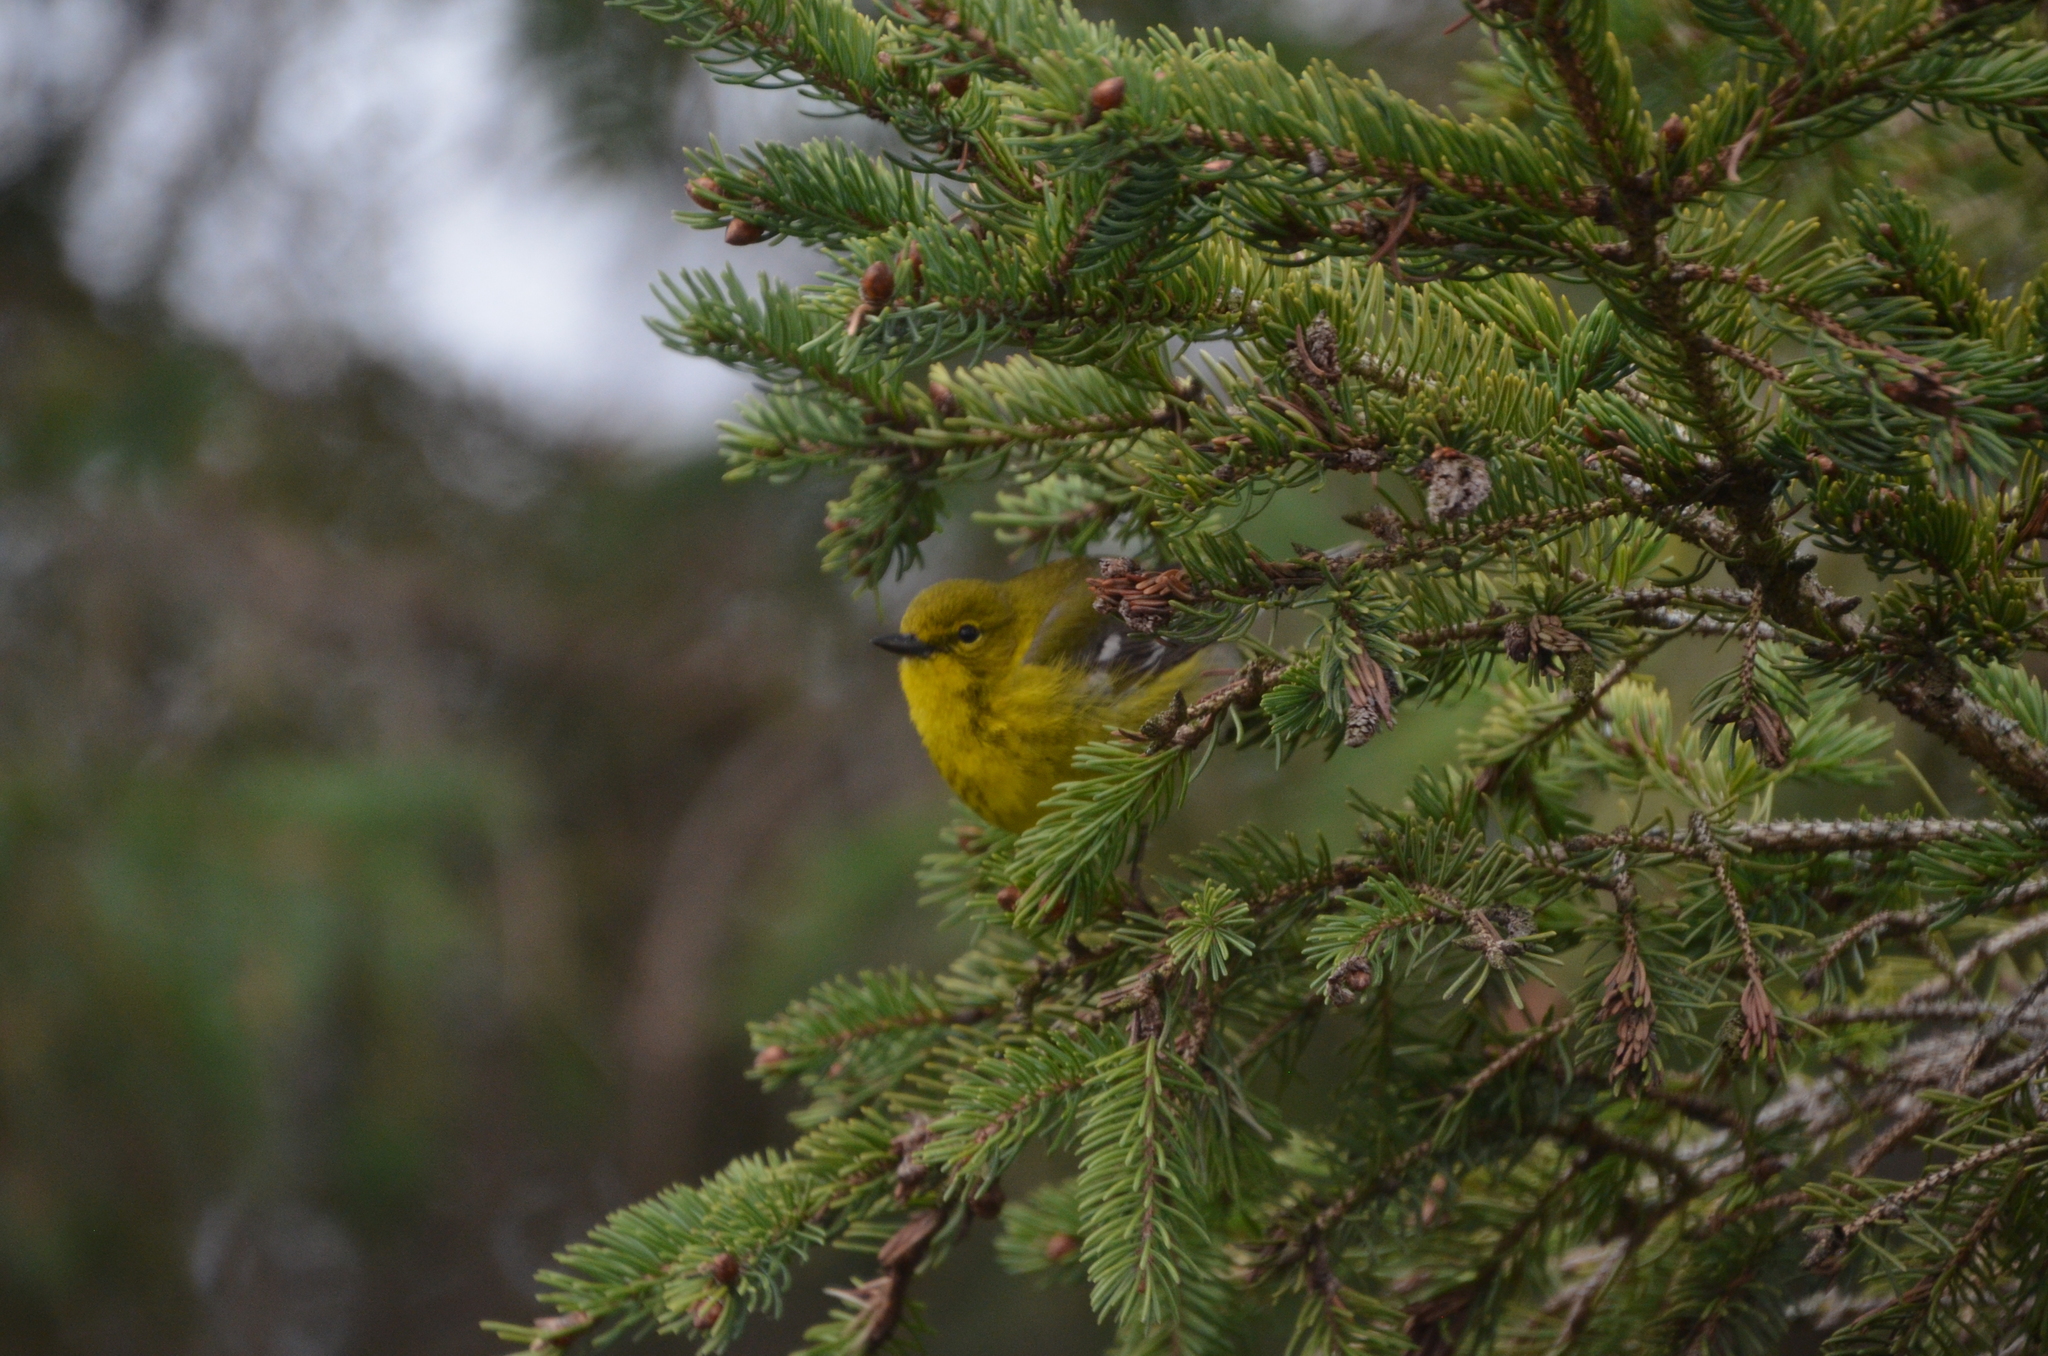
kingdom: Animalia
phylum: Chordata
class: Aves
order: Passeriformes
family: Parulidae
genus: Setophaga
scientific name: Setophaga pinus
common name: Pine warbler
